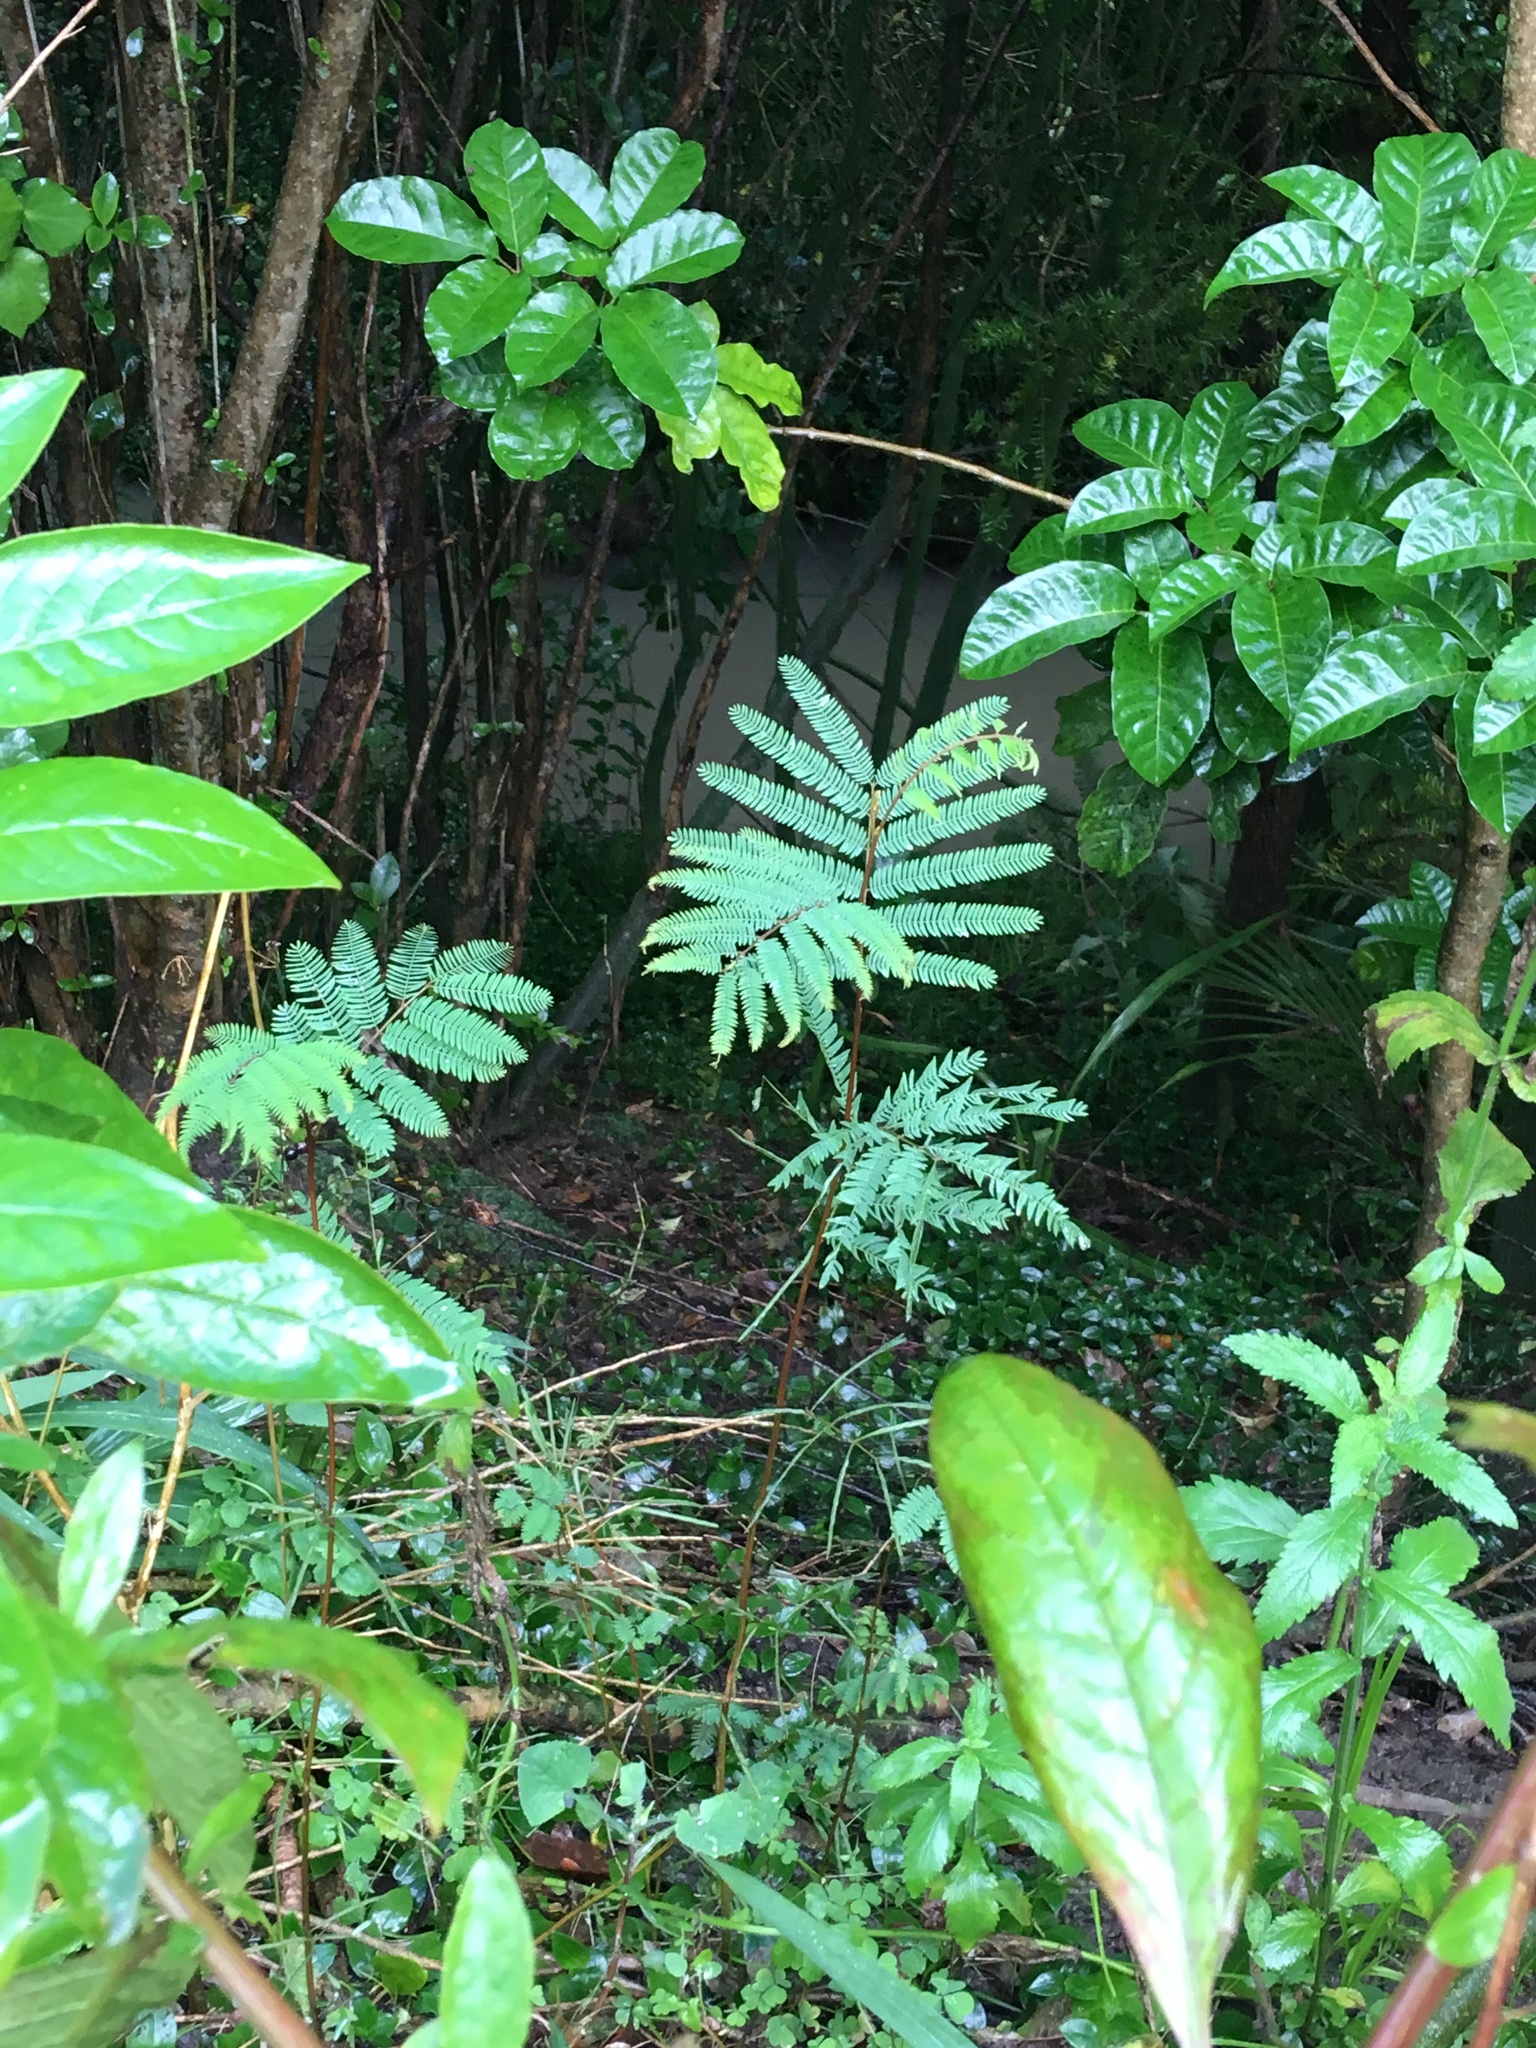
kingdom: Plantae
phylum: Tracheophyta
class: Magnoliopsida
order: Fabales
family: Fabaceae
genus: Paraserianthes
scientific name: Paraserianthes lophantha
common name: Plume albizia
